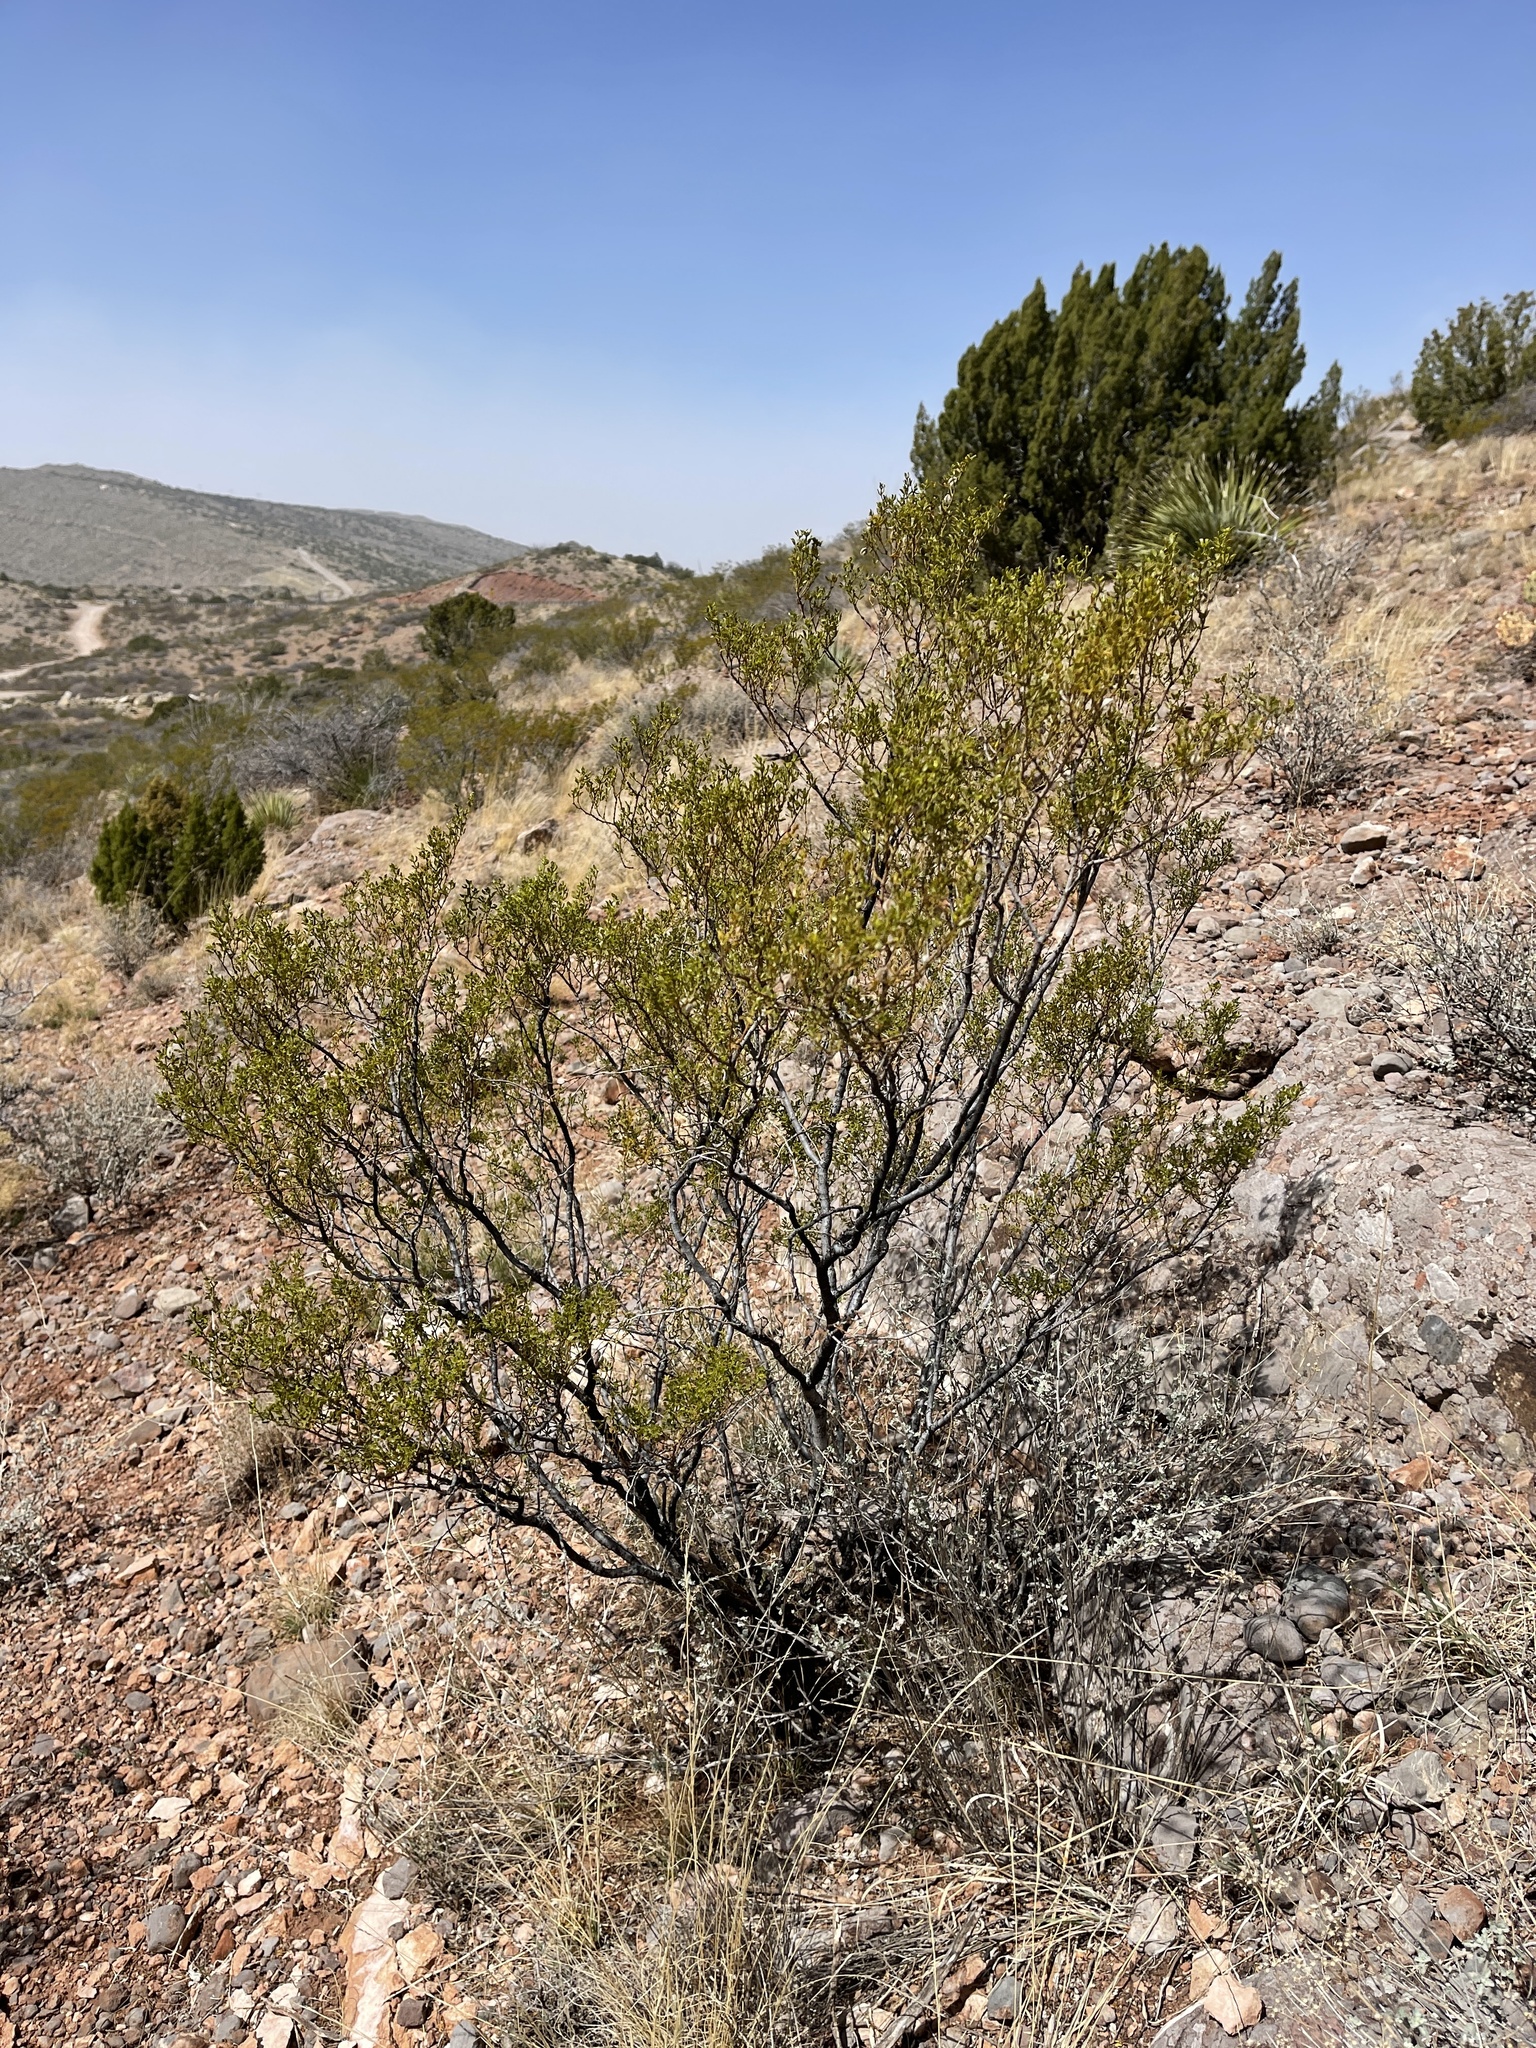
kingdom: Plantae
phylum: Tracheophyta
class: Magnoliopsida
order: Zygophyllales
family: Zygophyllaceae
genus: Larrea
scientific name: Larrea tridentata
